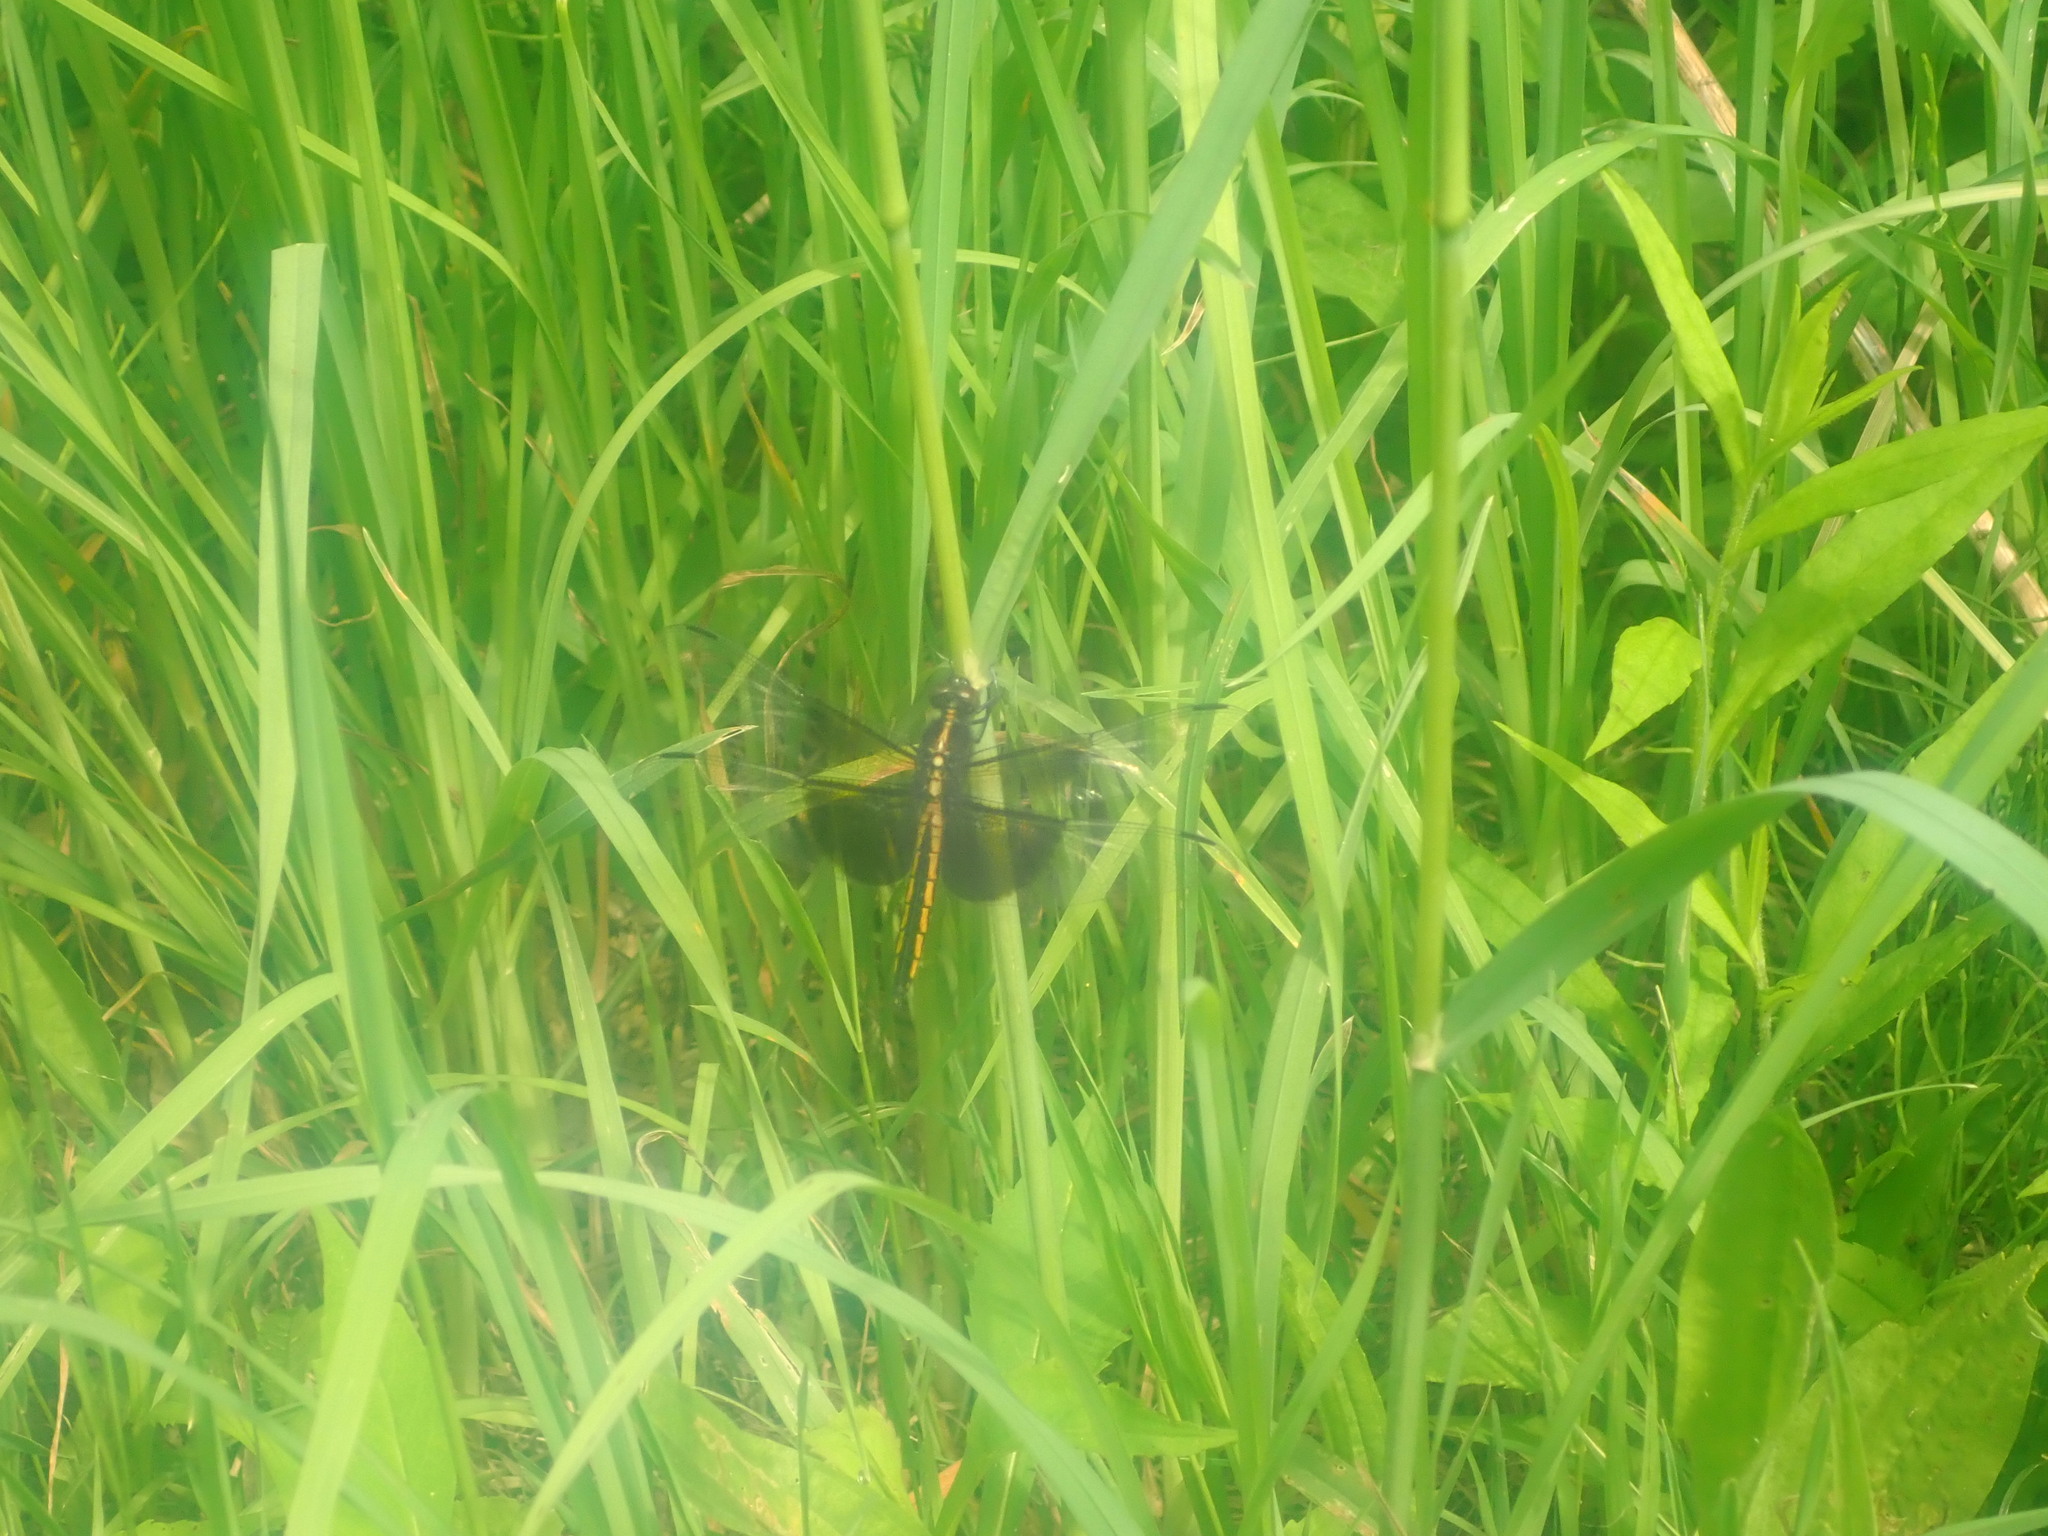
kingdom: Animalia
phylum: Arthropoda
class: Insecta
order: Odonata
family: Libellulidae
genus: Libellula
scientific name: Libellula luctuosa
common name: Widow skimmer
